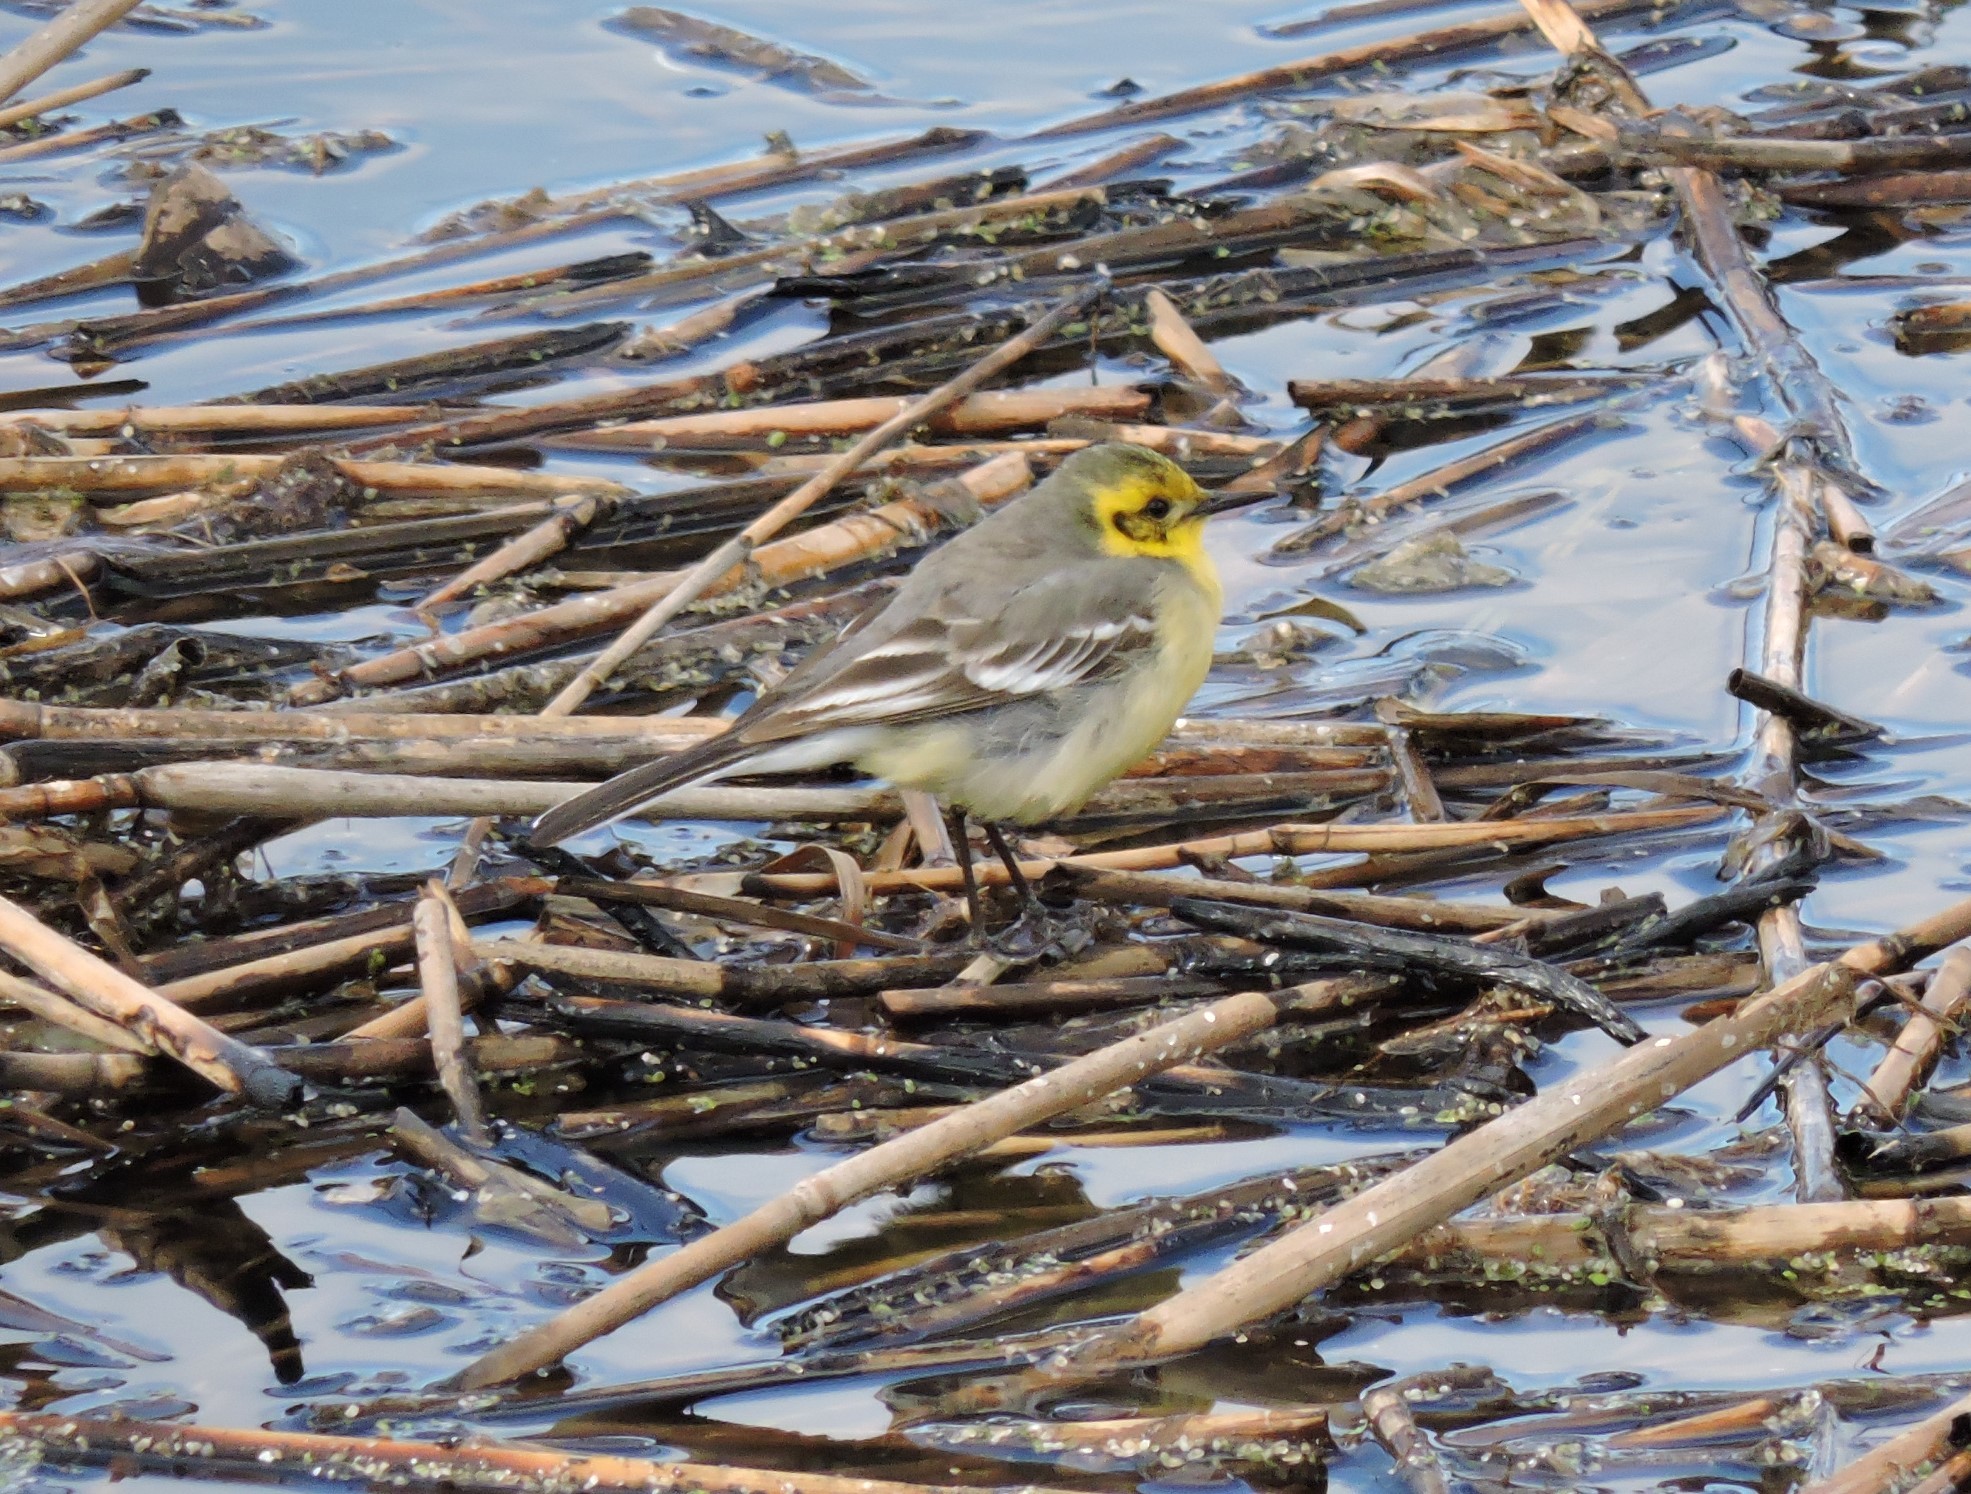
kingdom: Animalia
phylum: Chordata
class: Aves
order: Passeriformes
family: Motacillidae
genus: Motacilla
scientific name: Motacilla citreola
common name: Citrine wagtail
